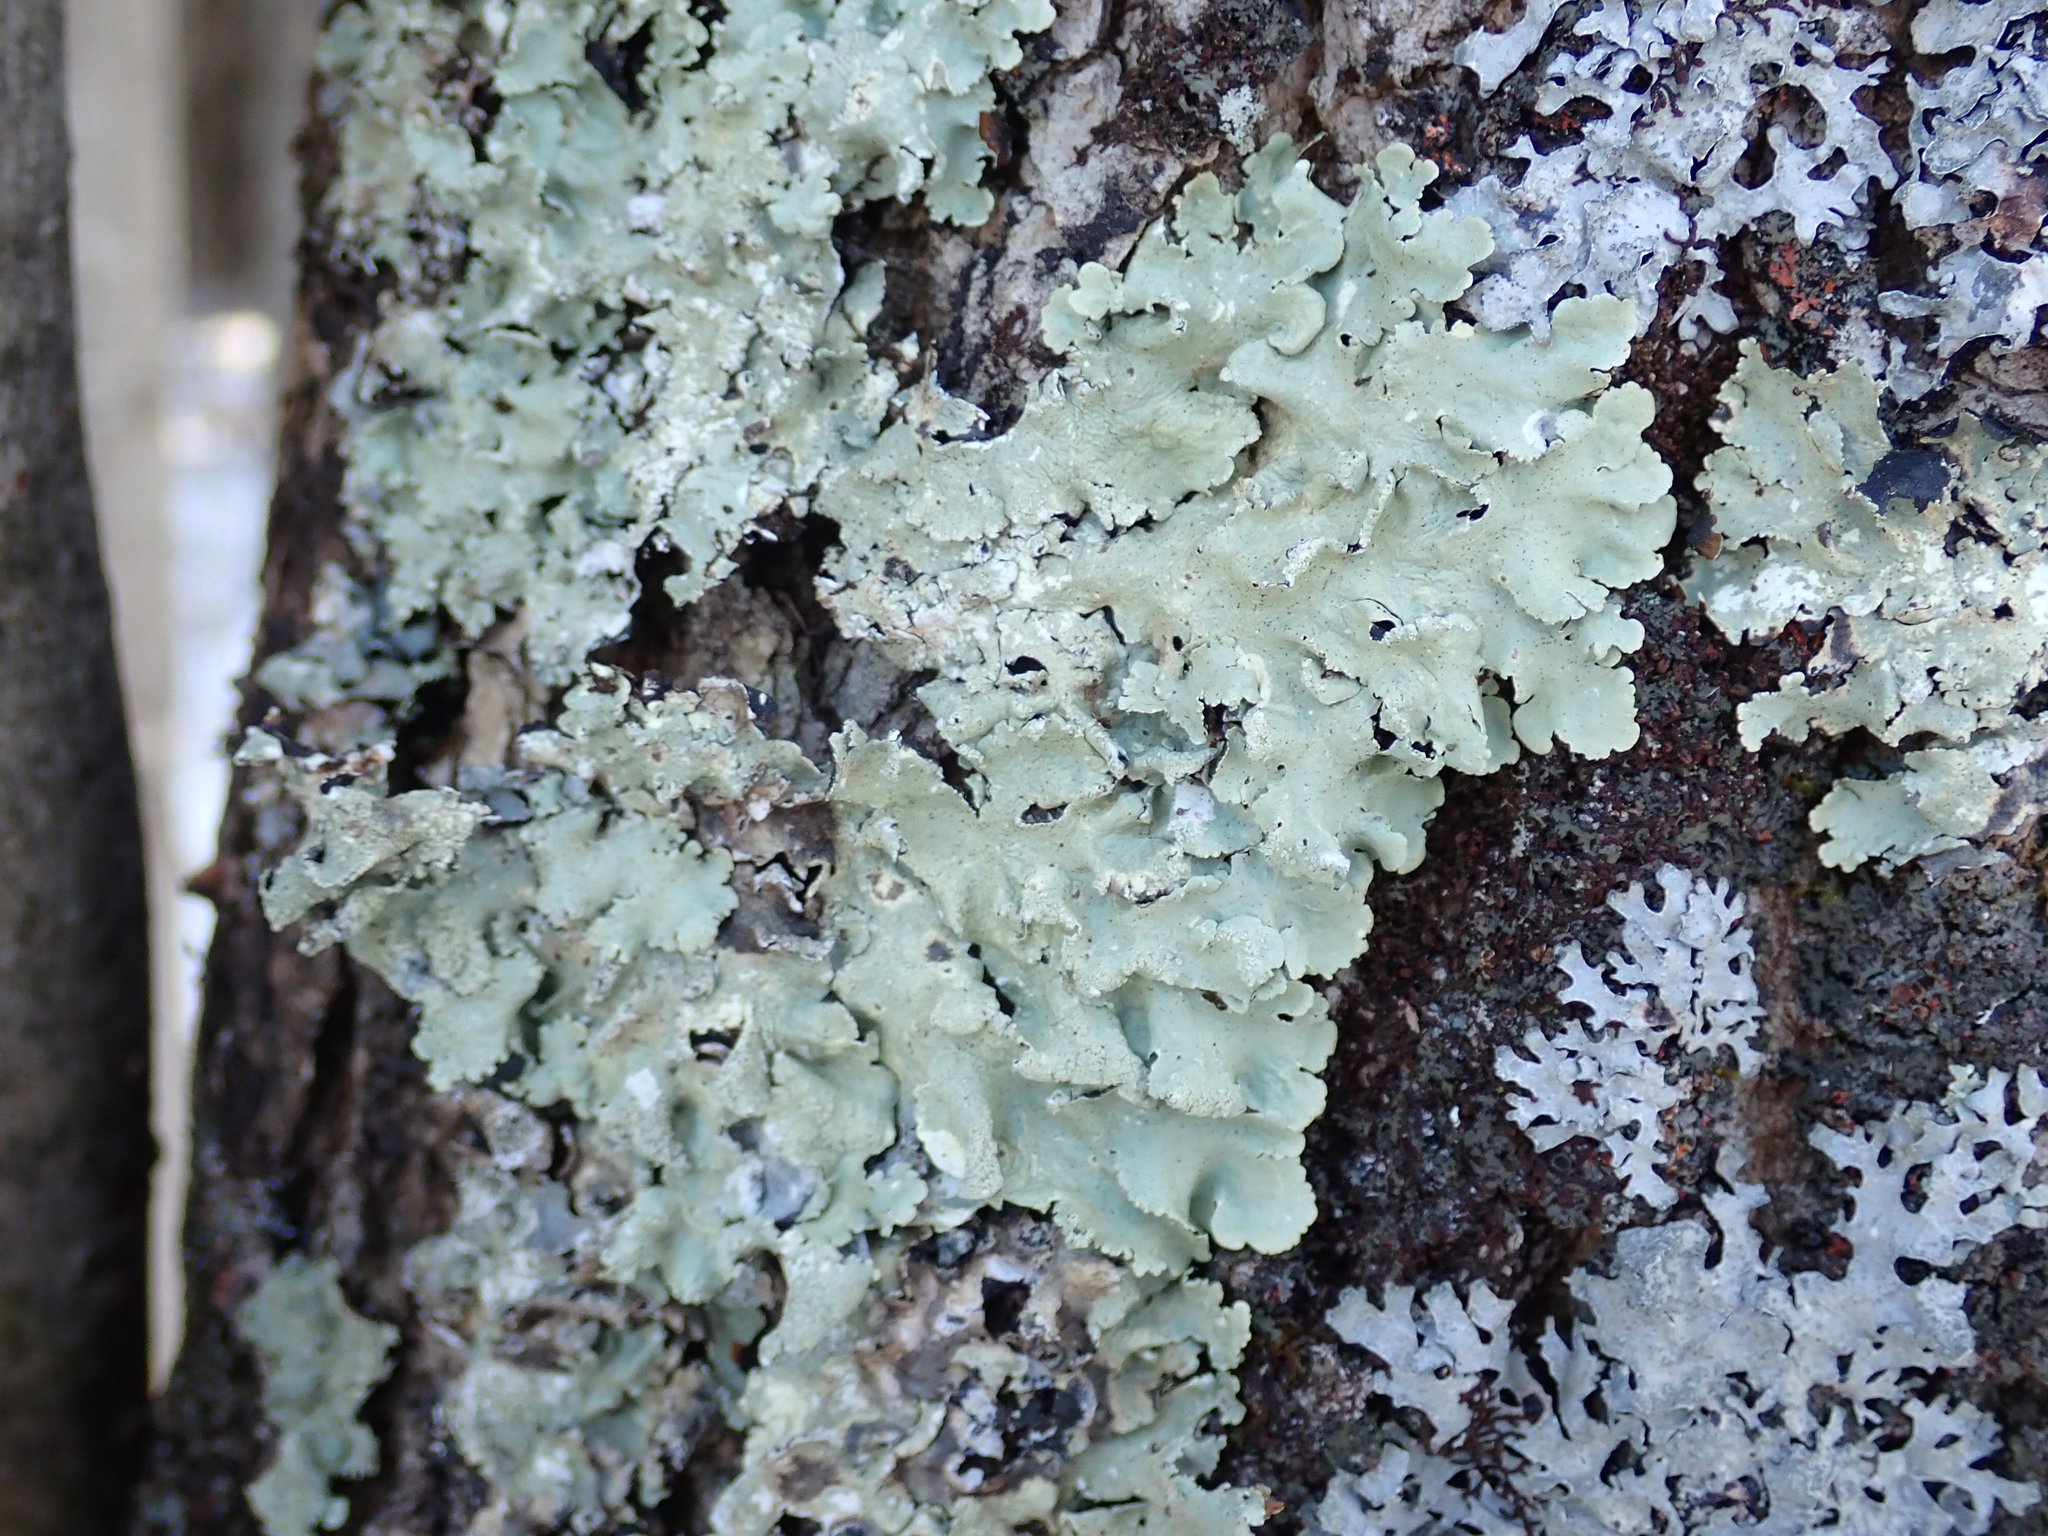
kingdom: Fungi
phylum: Ascomycota
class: Lecanoromycetes
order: Lecanorales
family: Parmeliaceae
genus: Flavoparmelia
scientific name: Flavoparmelia caperata
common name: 40-mile per hour lichen
